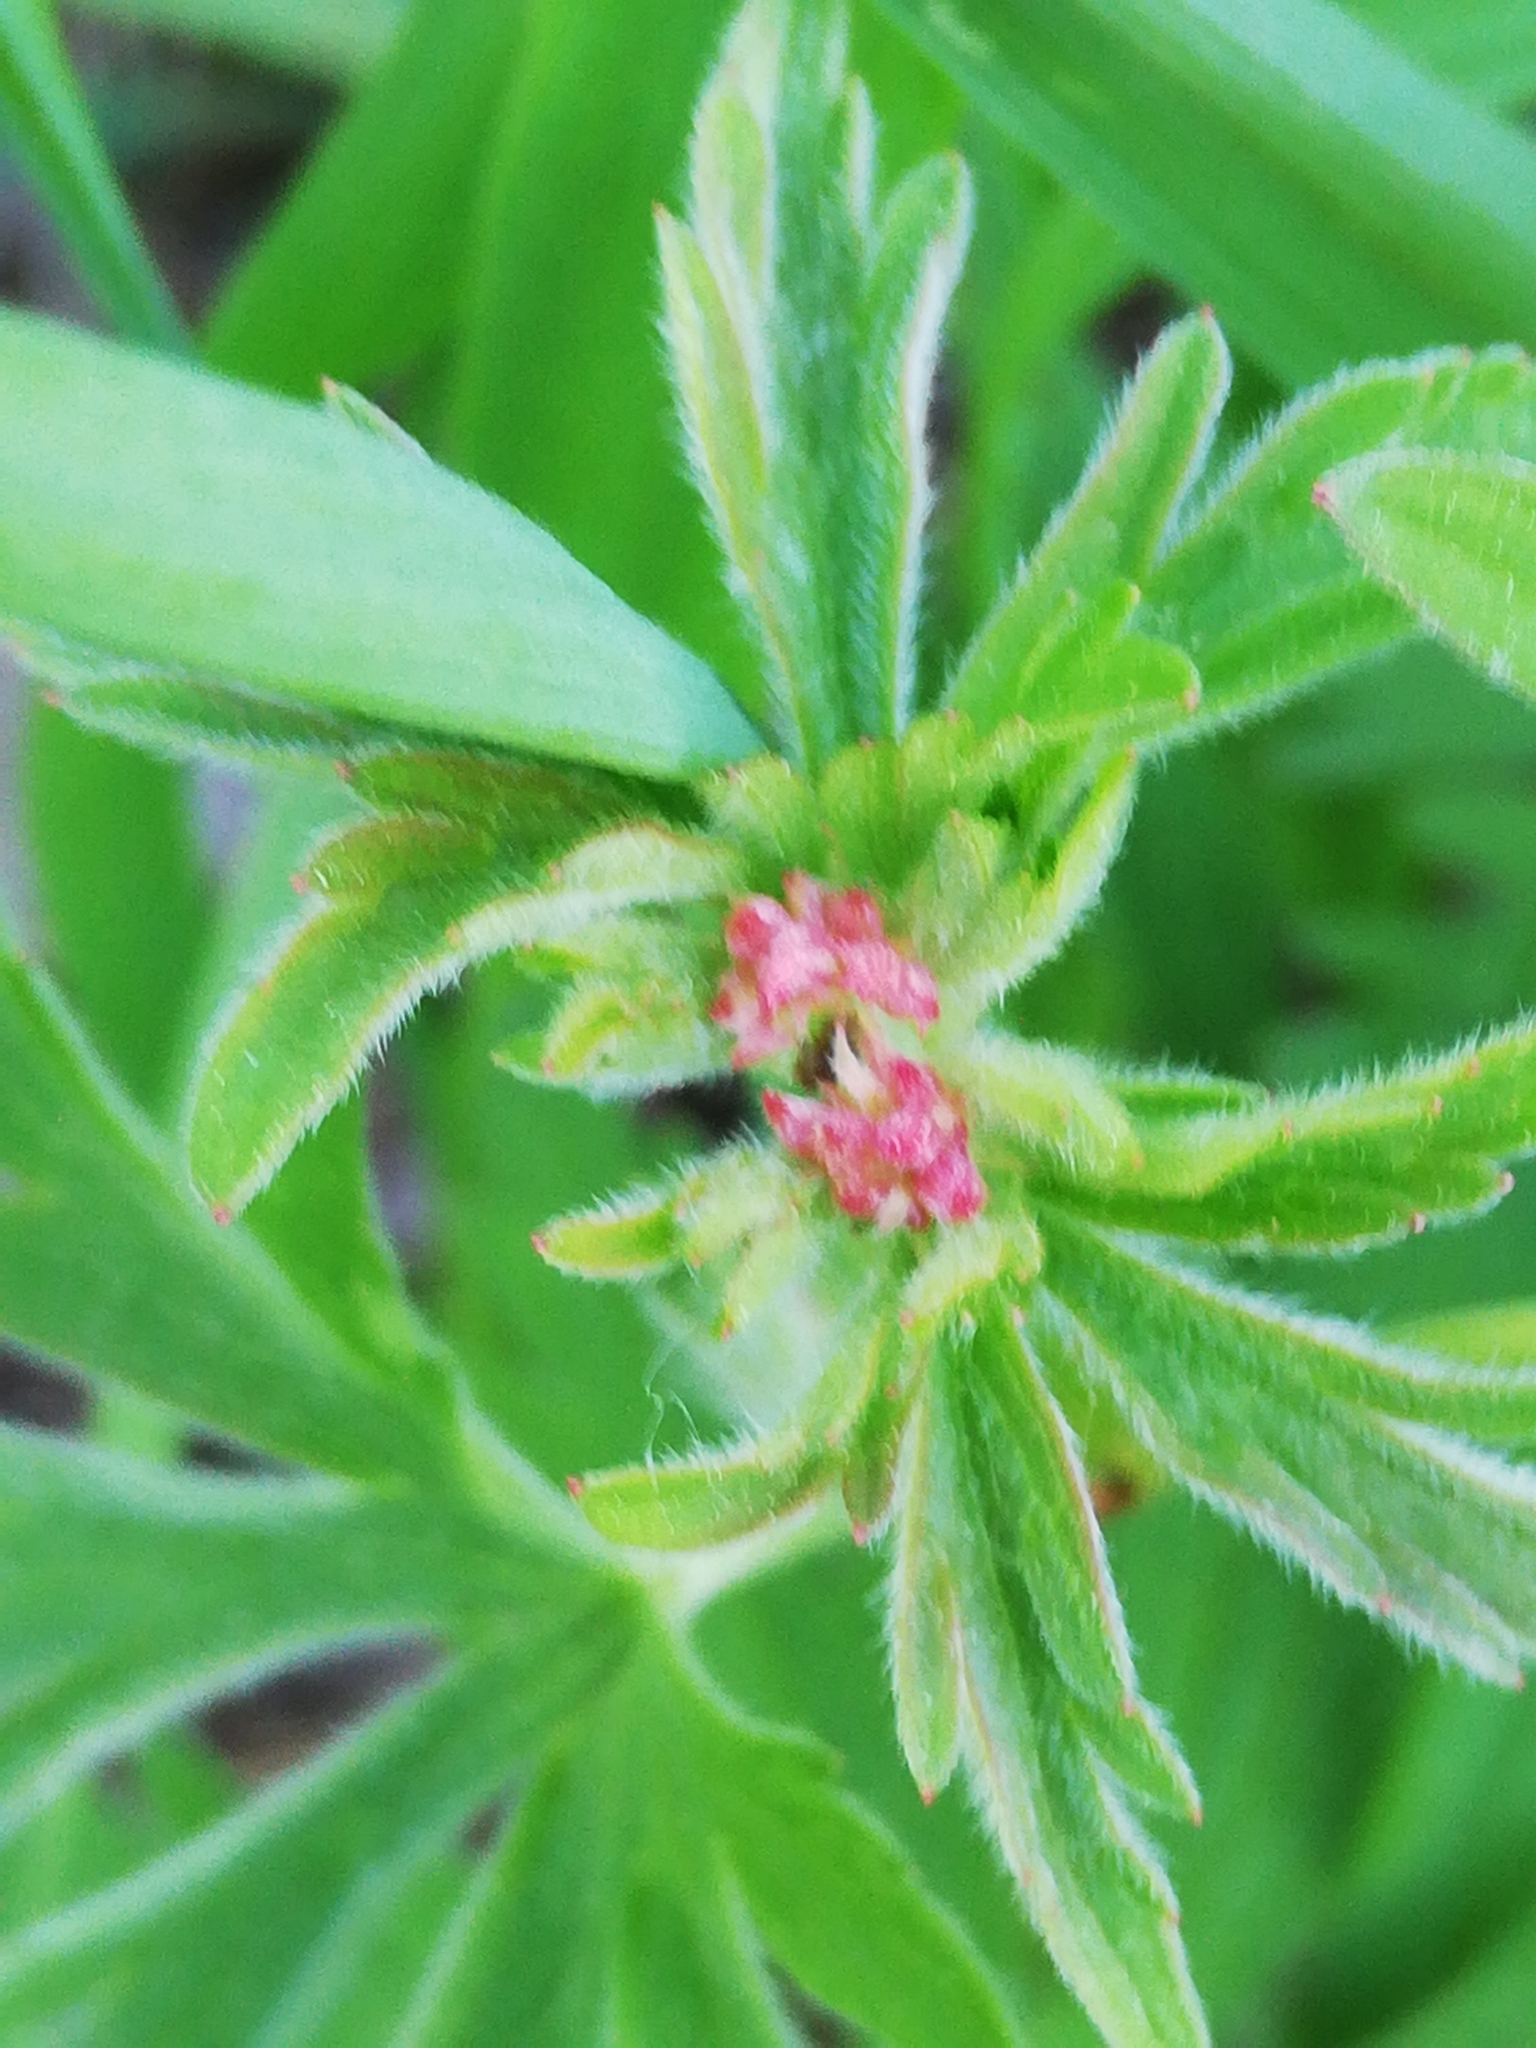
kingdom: Plantae
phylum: Tracheophyta
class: Magnoliopsida
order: Rosales
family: Rosaceae
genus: Filipendula
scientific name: Filipendula ulmaria
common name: Meadowsweet
